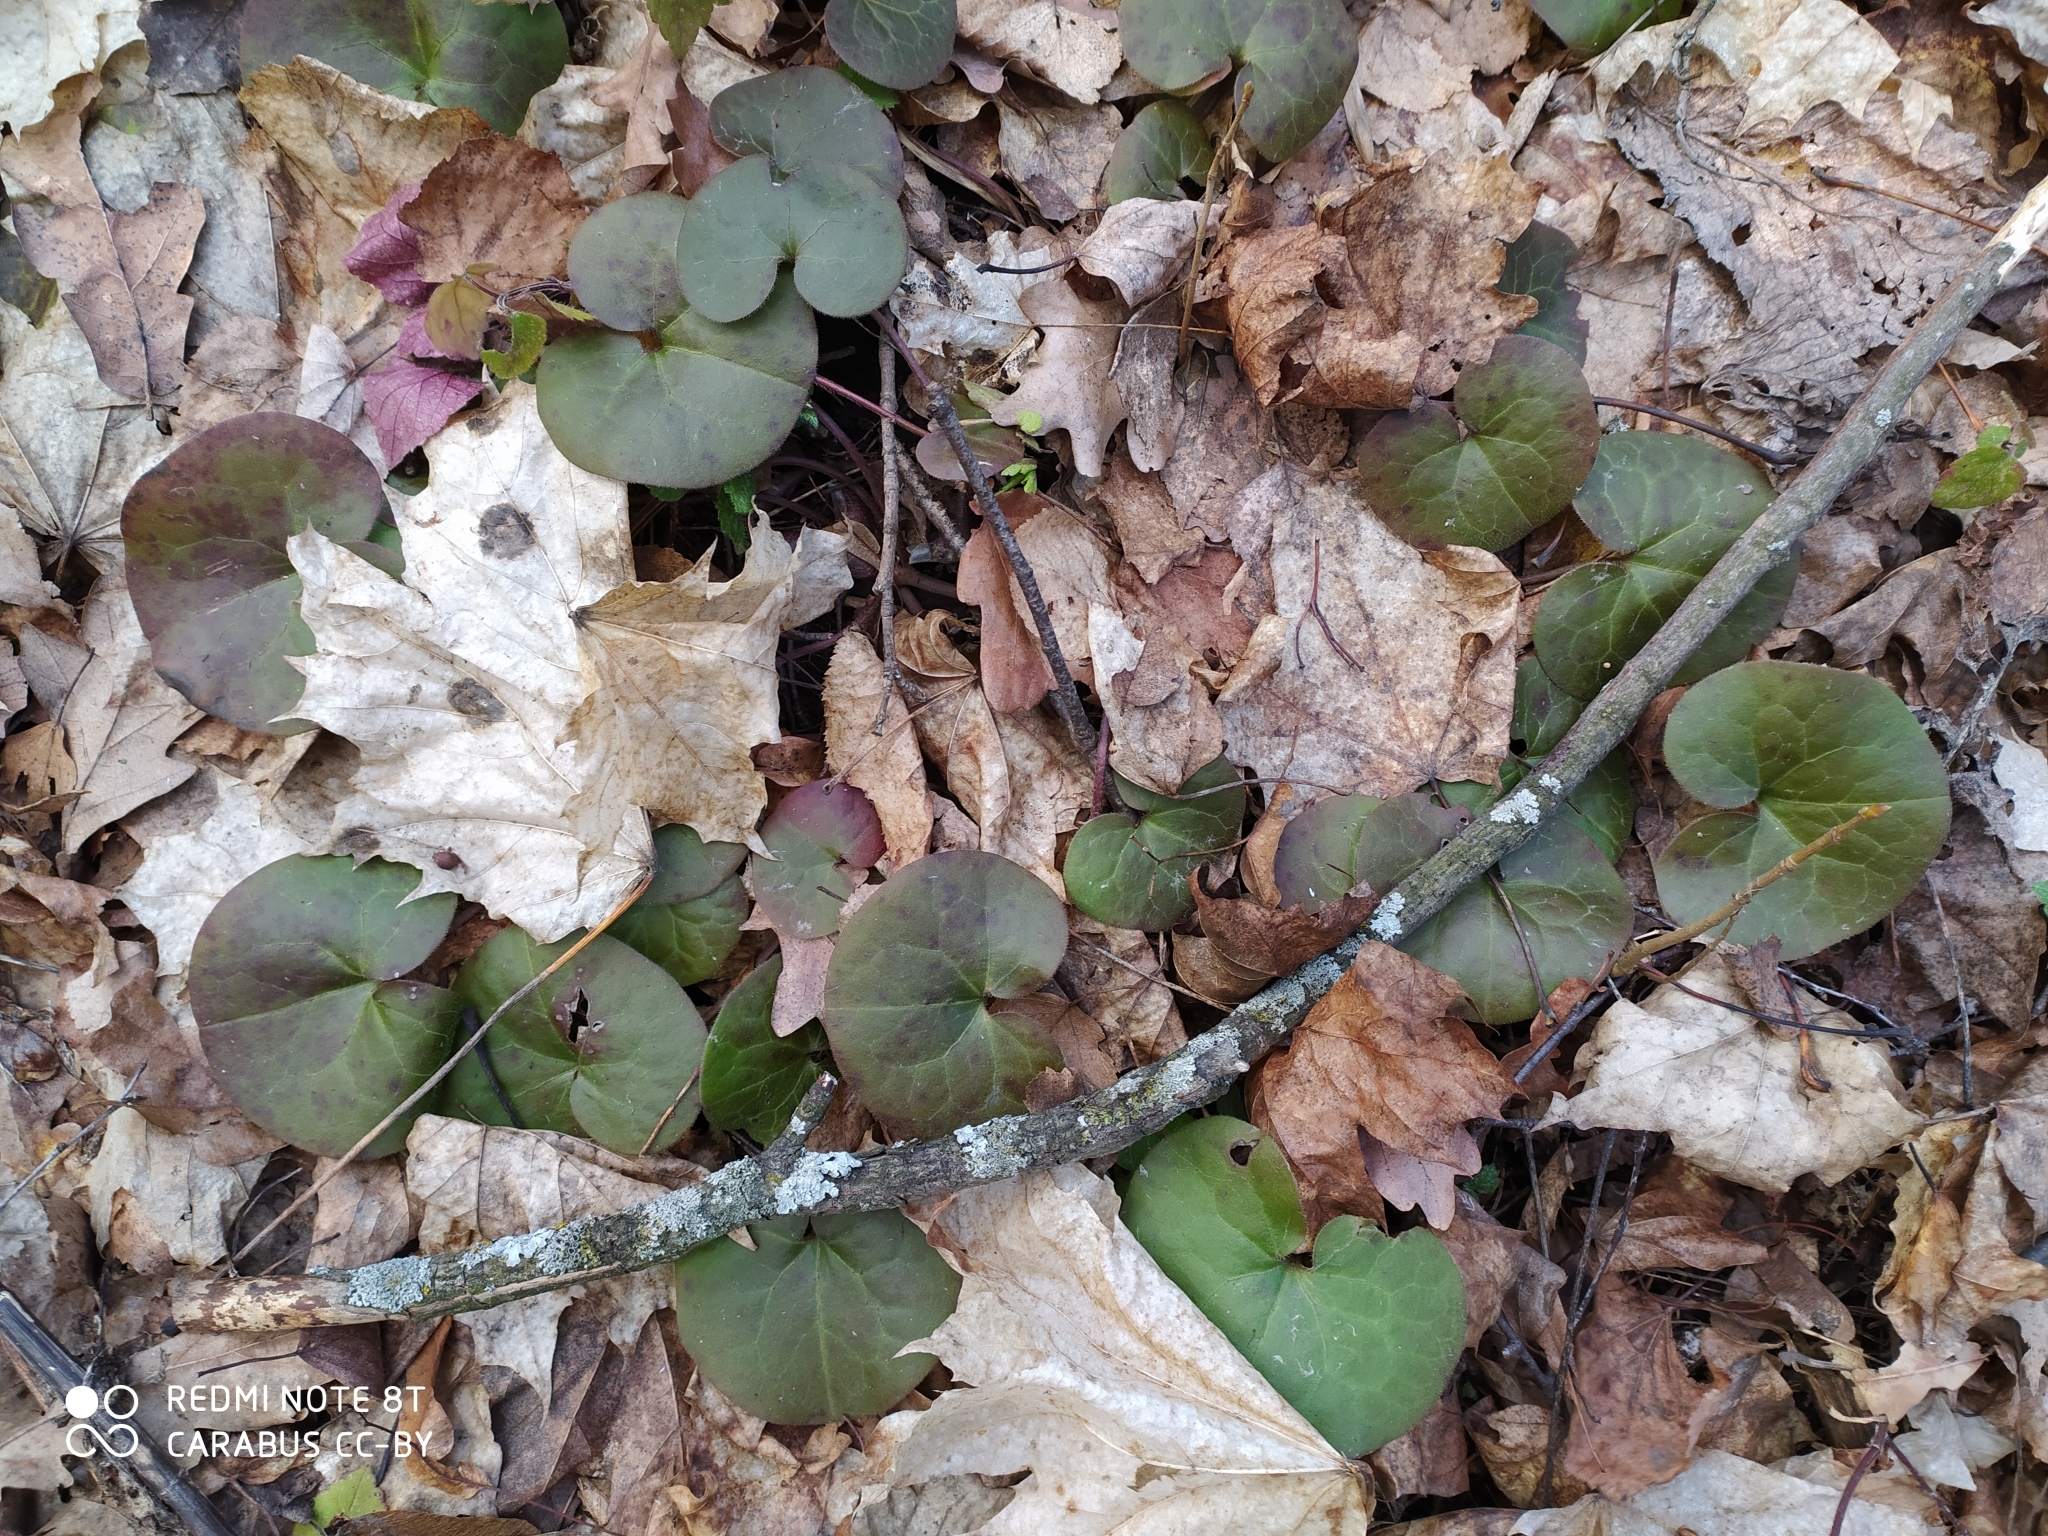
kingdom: Plantae
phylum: Tracheophyta
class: Magnoliopsida
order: Piperales
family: Aristolochiaceae
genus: Asarum
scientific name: Asarum europaeum
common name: Asarabacca
